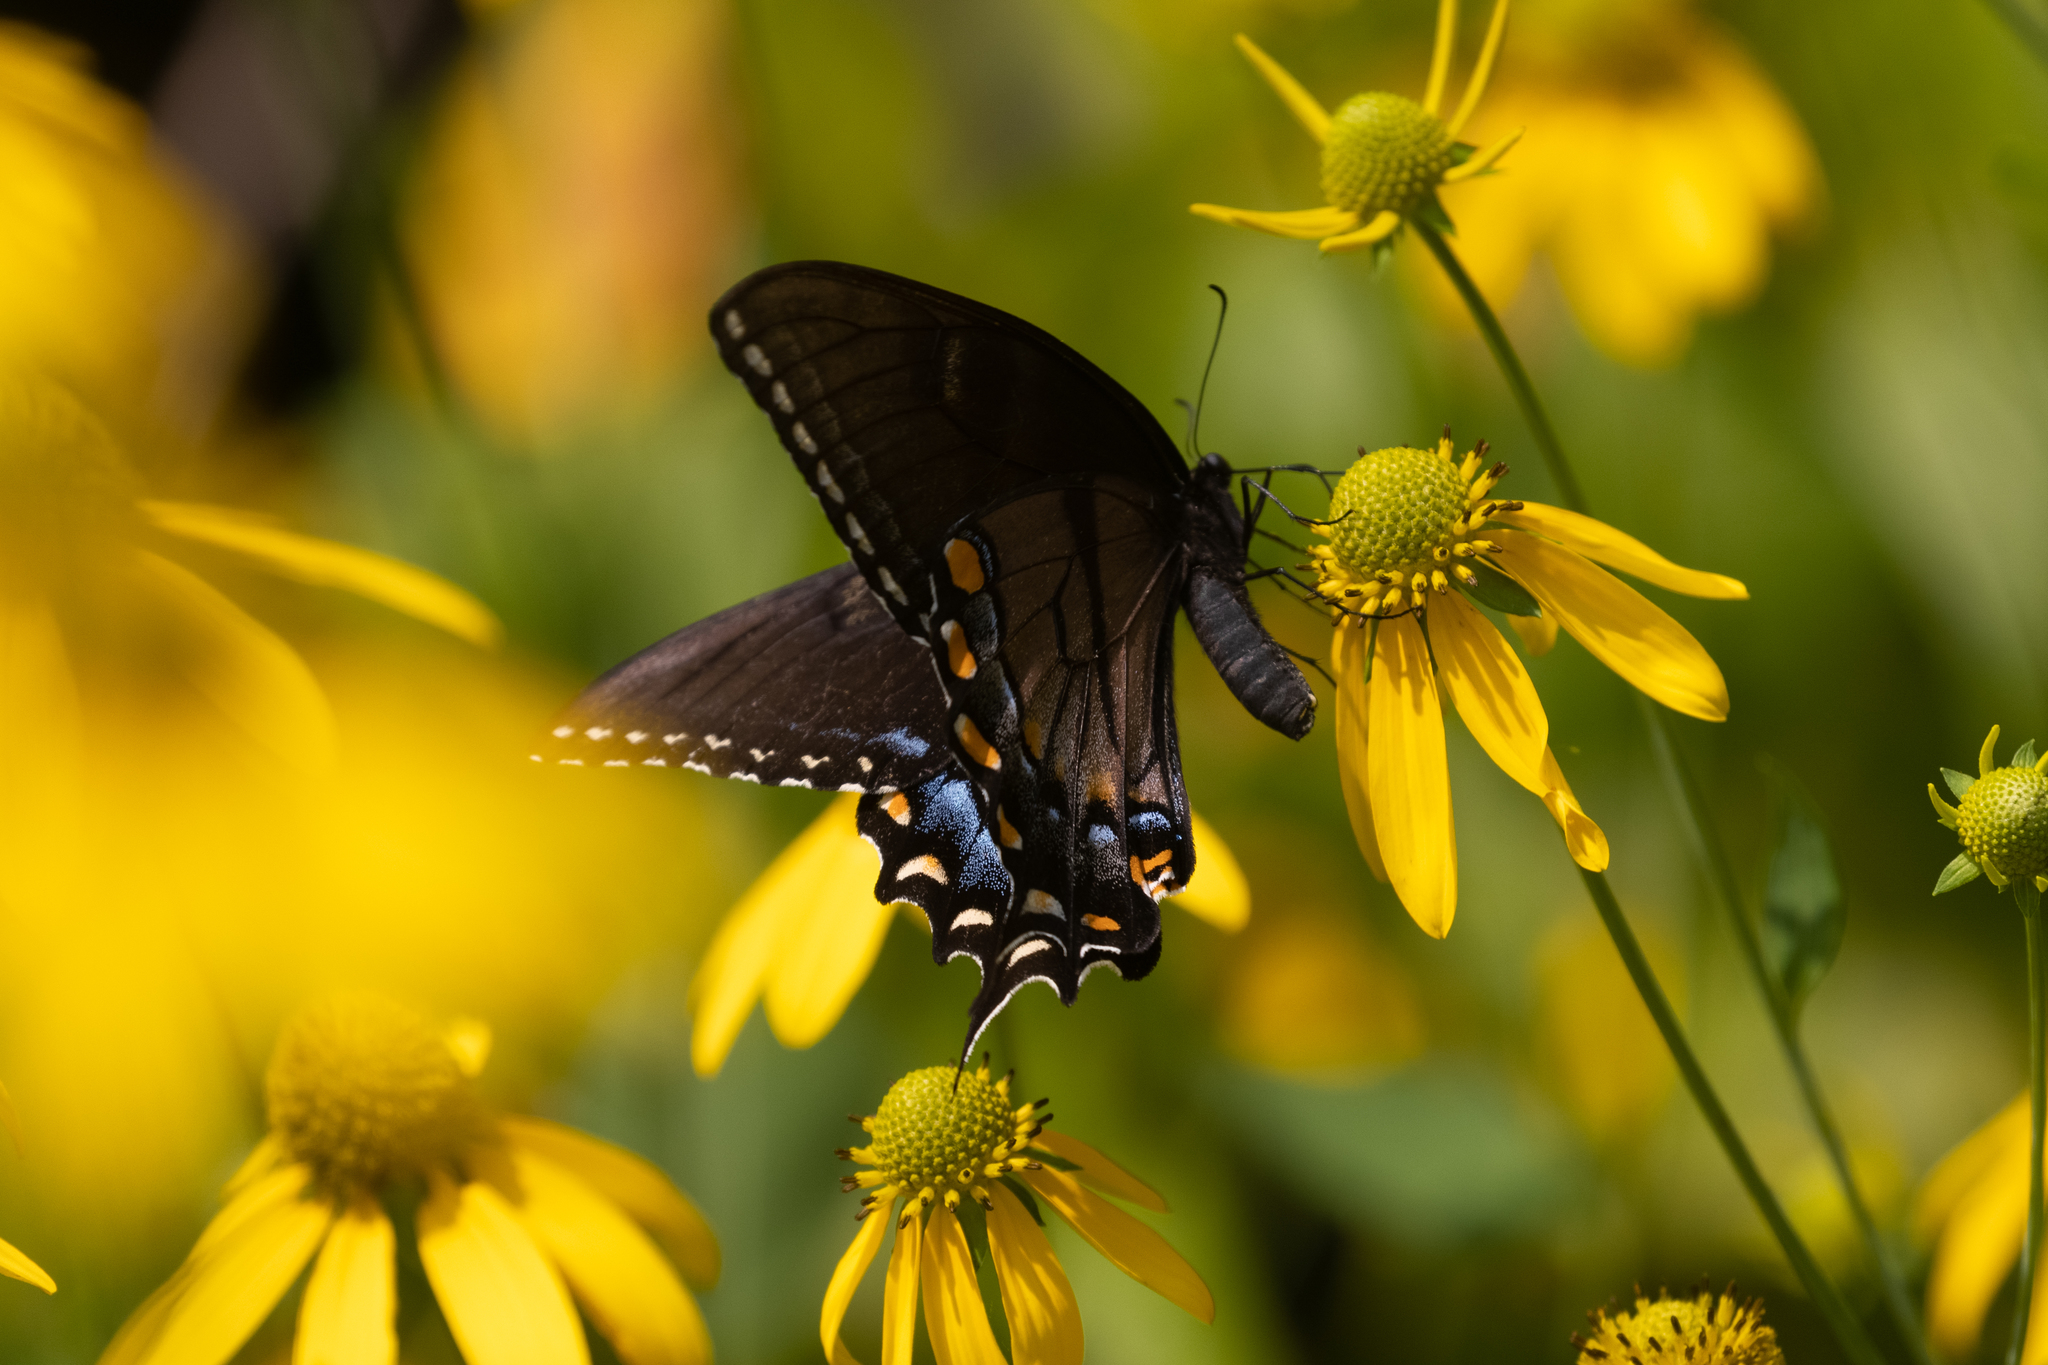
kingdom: Animalia
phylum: Arthropoda
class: Insecta
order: Lepidoptera
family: Papilionidae
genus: Papilio
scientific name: Papilio glaucus
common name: Tiger swallowtail
